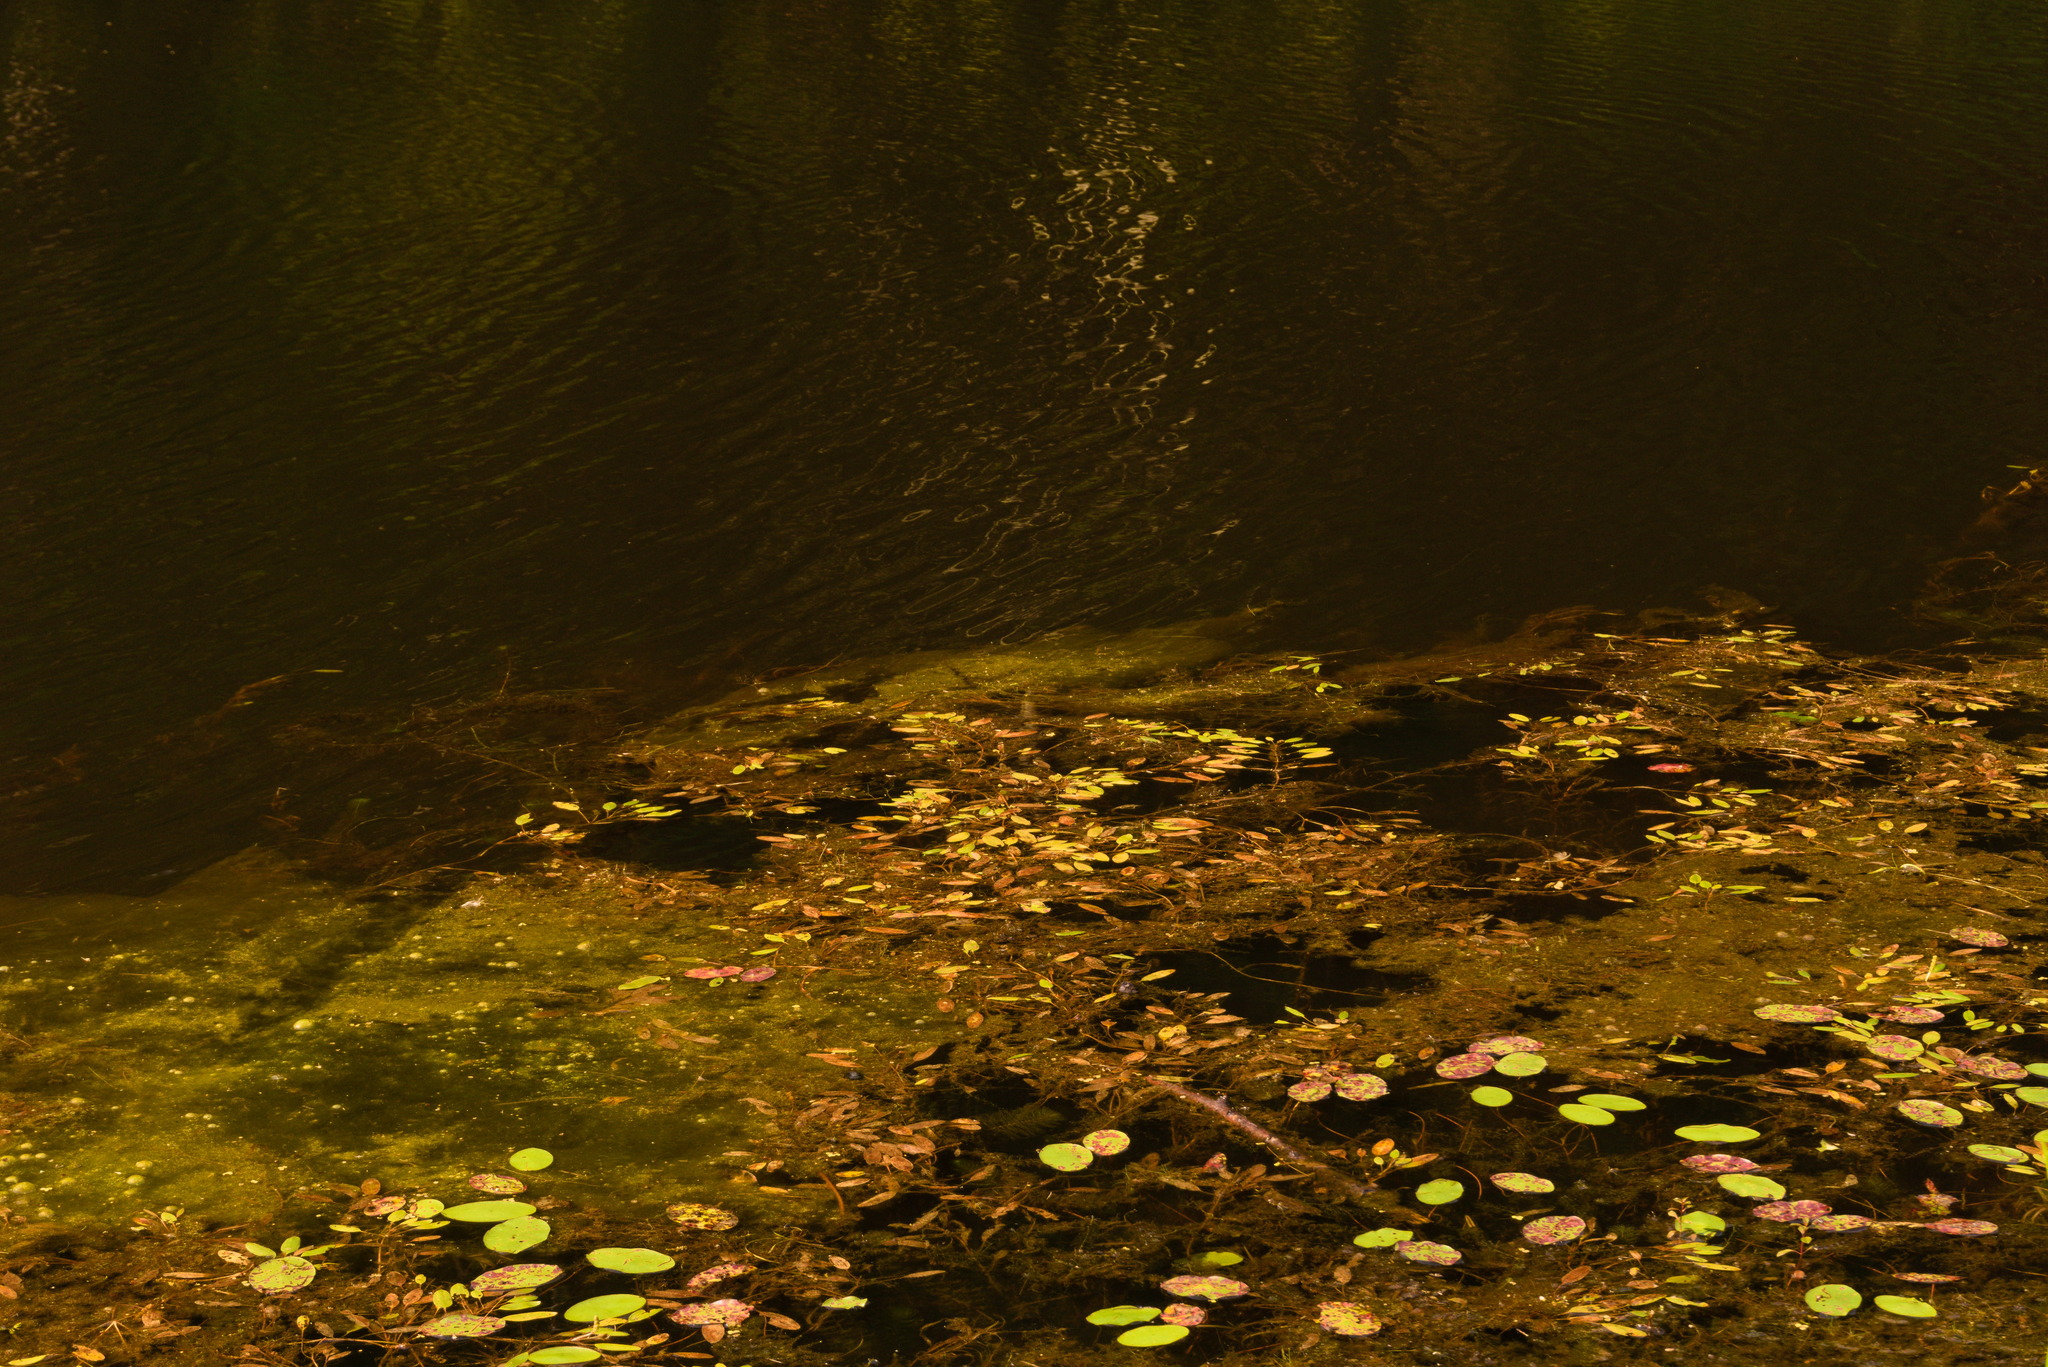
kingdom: Plantae
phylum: Tracheophyta
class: Magnoliopsida
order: Nymphaeales
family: Cabombaceae
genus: Brasenia
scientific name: Brasenia schreberi
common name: Water-shield
